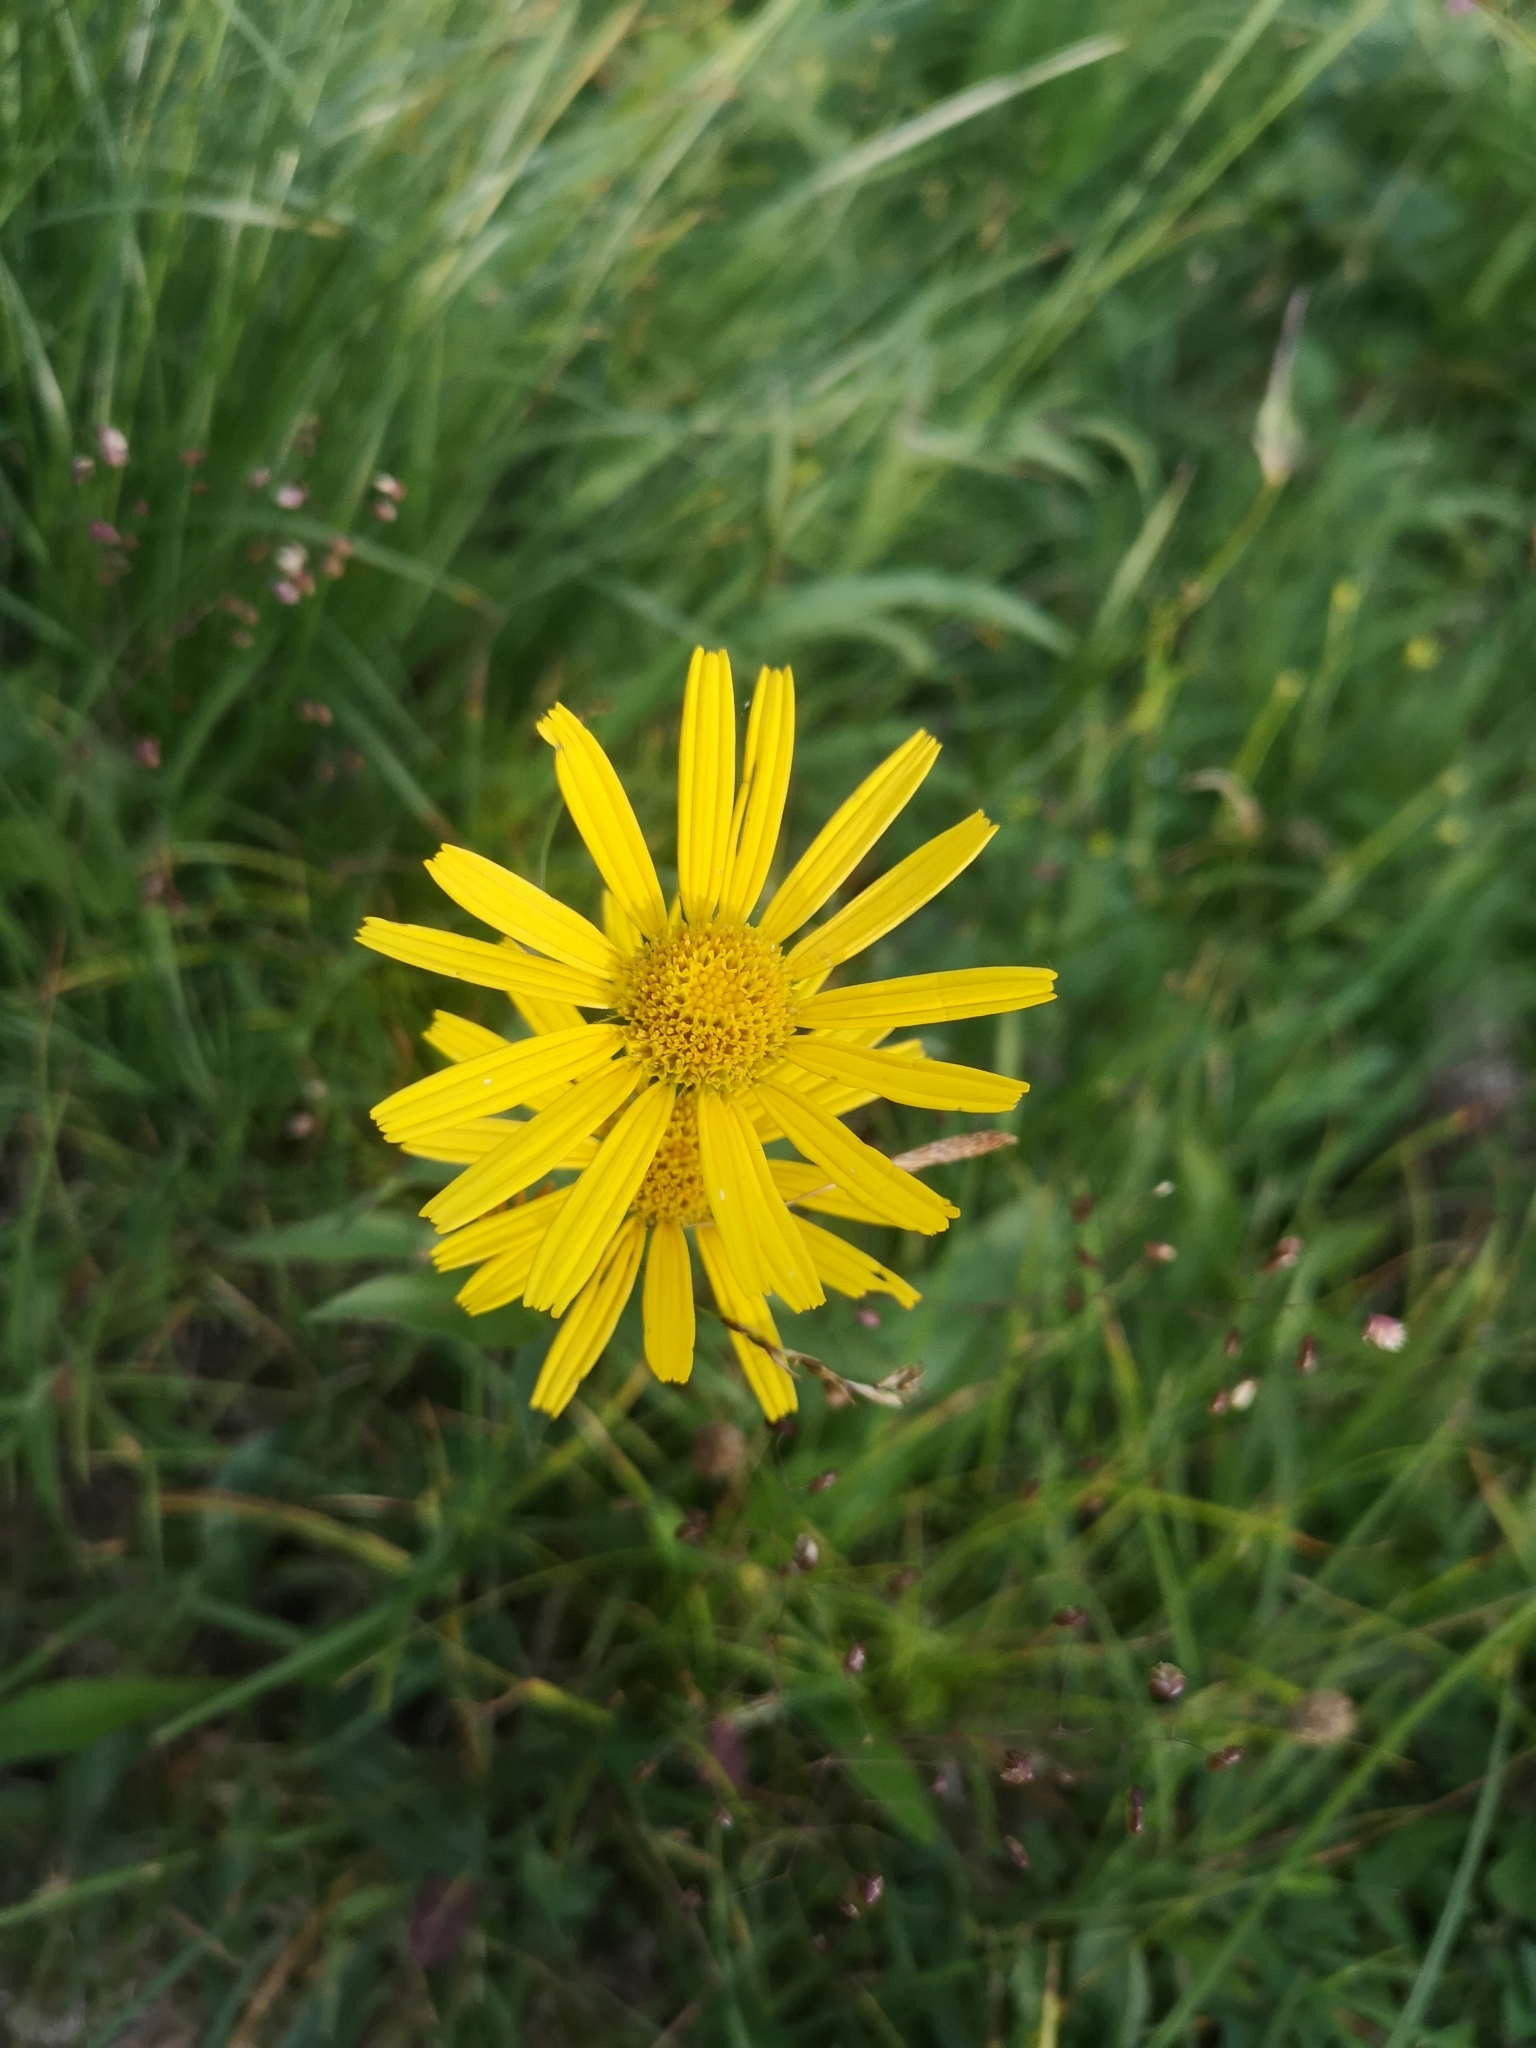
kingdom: Plantae
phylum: Tracheophyta
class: Magnoliopsida
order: Asterales
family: Asteraceae
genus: Buphthalmum
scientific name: Buphthalmum salicifolium
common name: Willow-leaved yellow-oxeye
